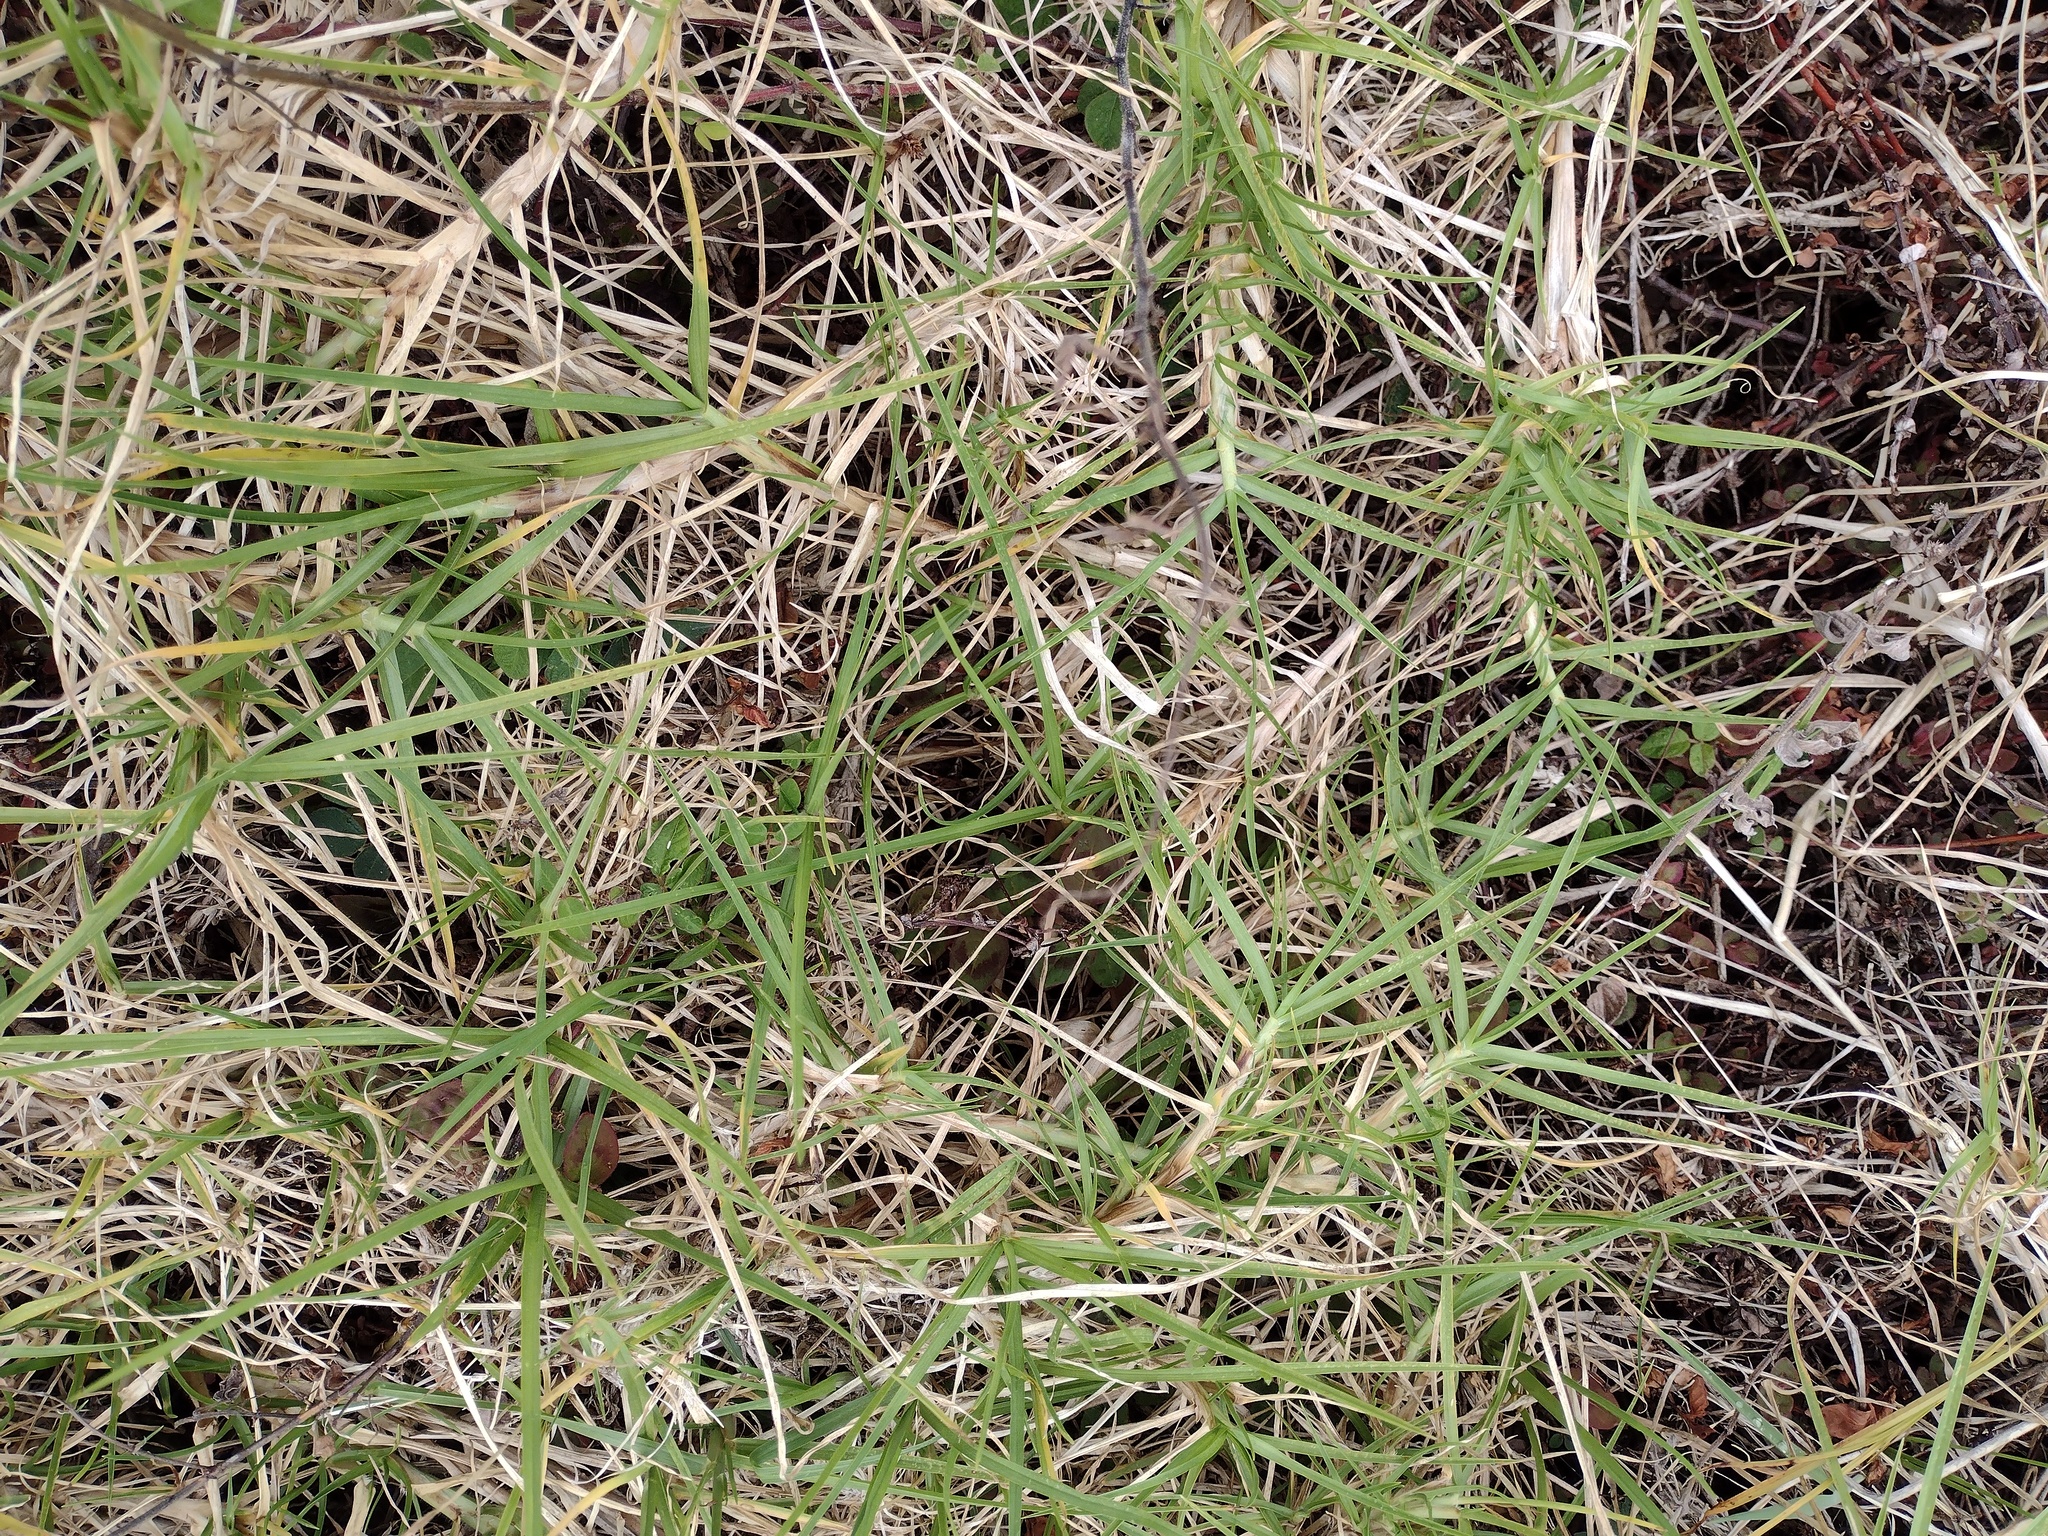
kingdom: Plantae
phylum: Tracheophyta
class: Liliopsida
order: Poales
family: Poaceae
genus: Cenchrus
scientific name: Cenchrus clandestinus
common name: Kikuyugrass
